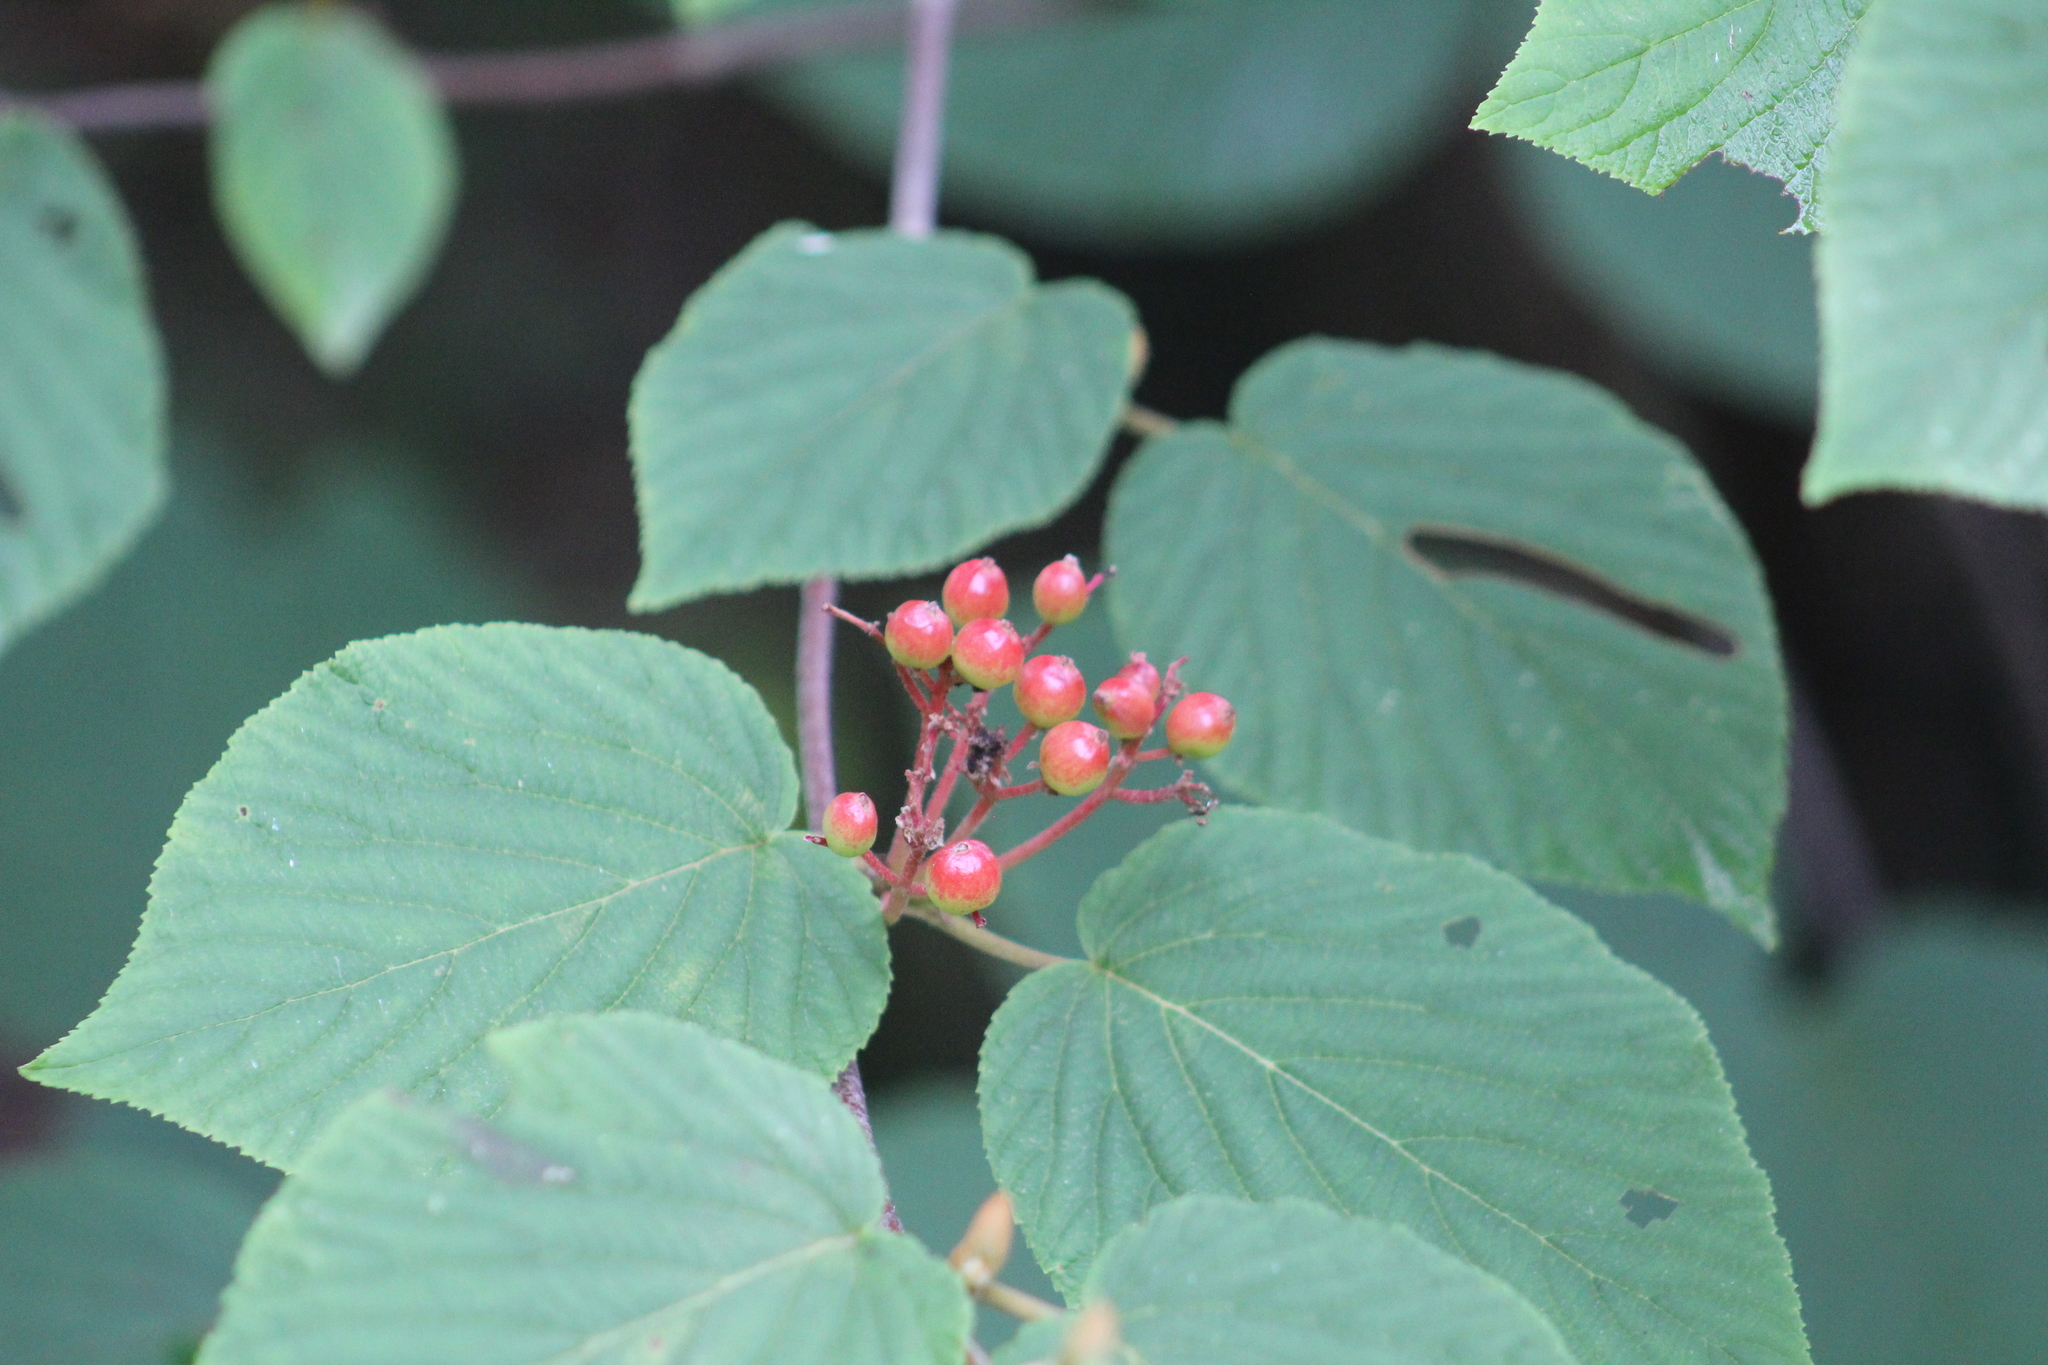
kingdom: Plantae
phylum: Tracheophyta
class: Magnoliopsida
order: Dipsacales
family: Viburnaceae
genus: Viburnum
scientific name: Viburnum lantanoides
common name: Hobblebush
